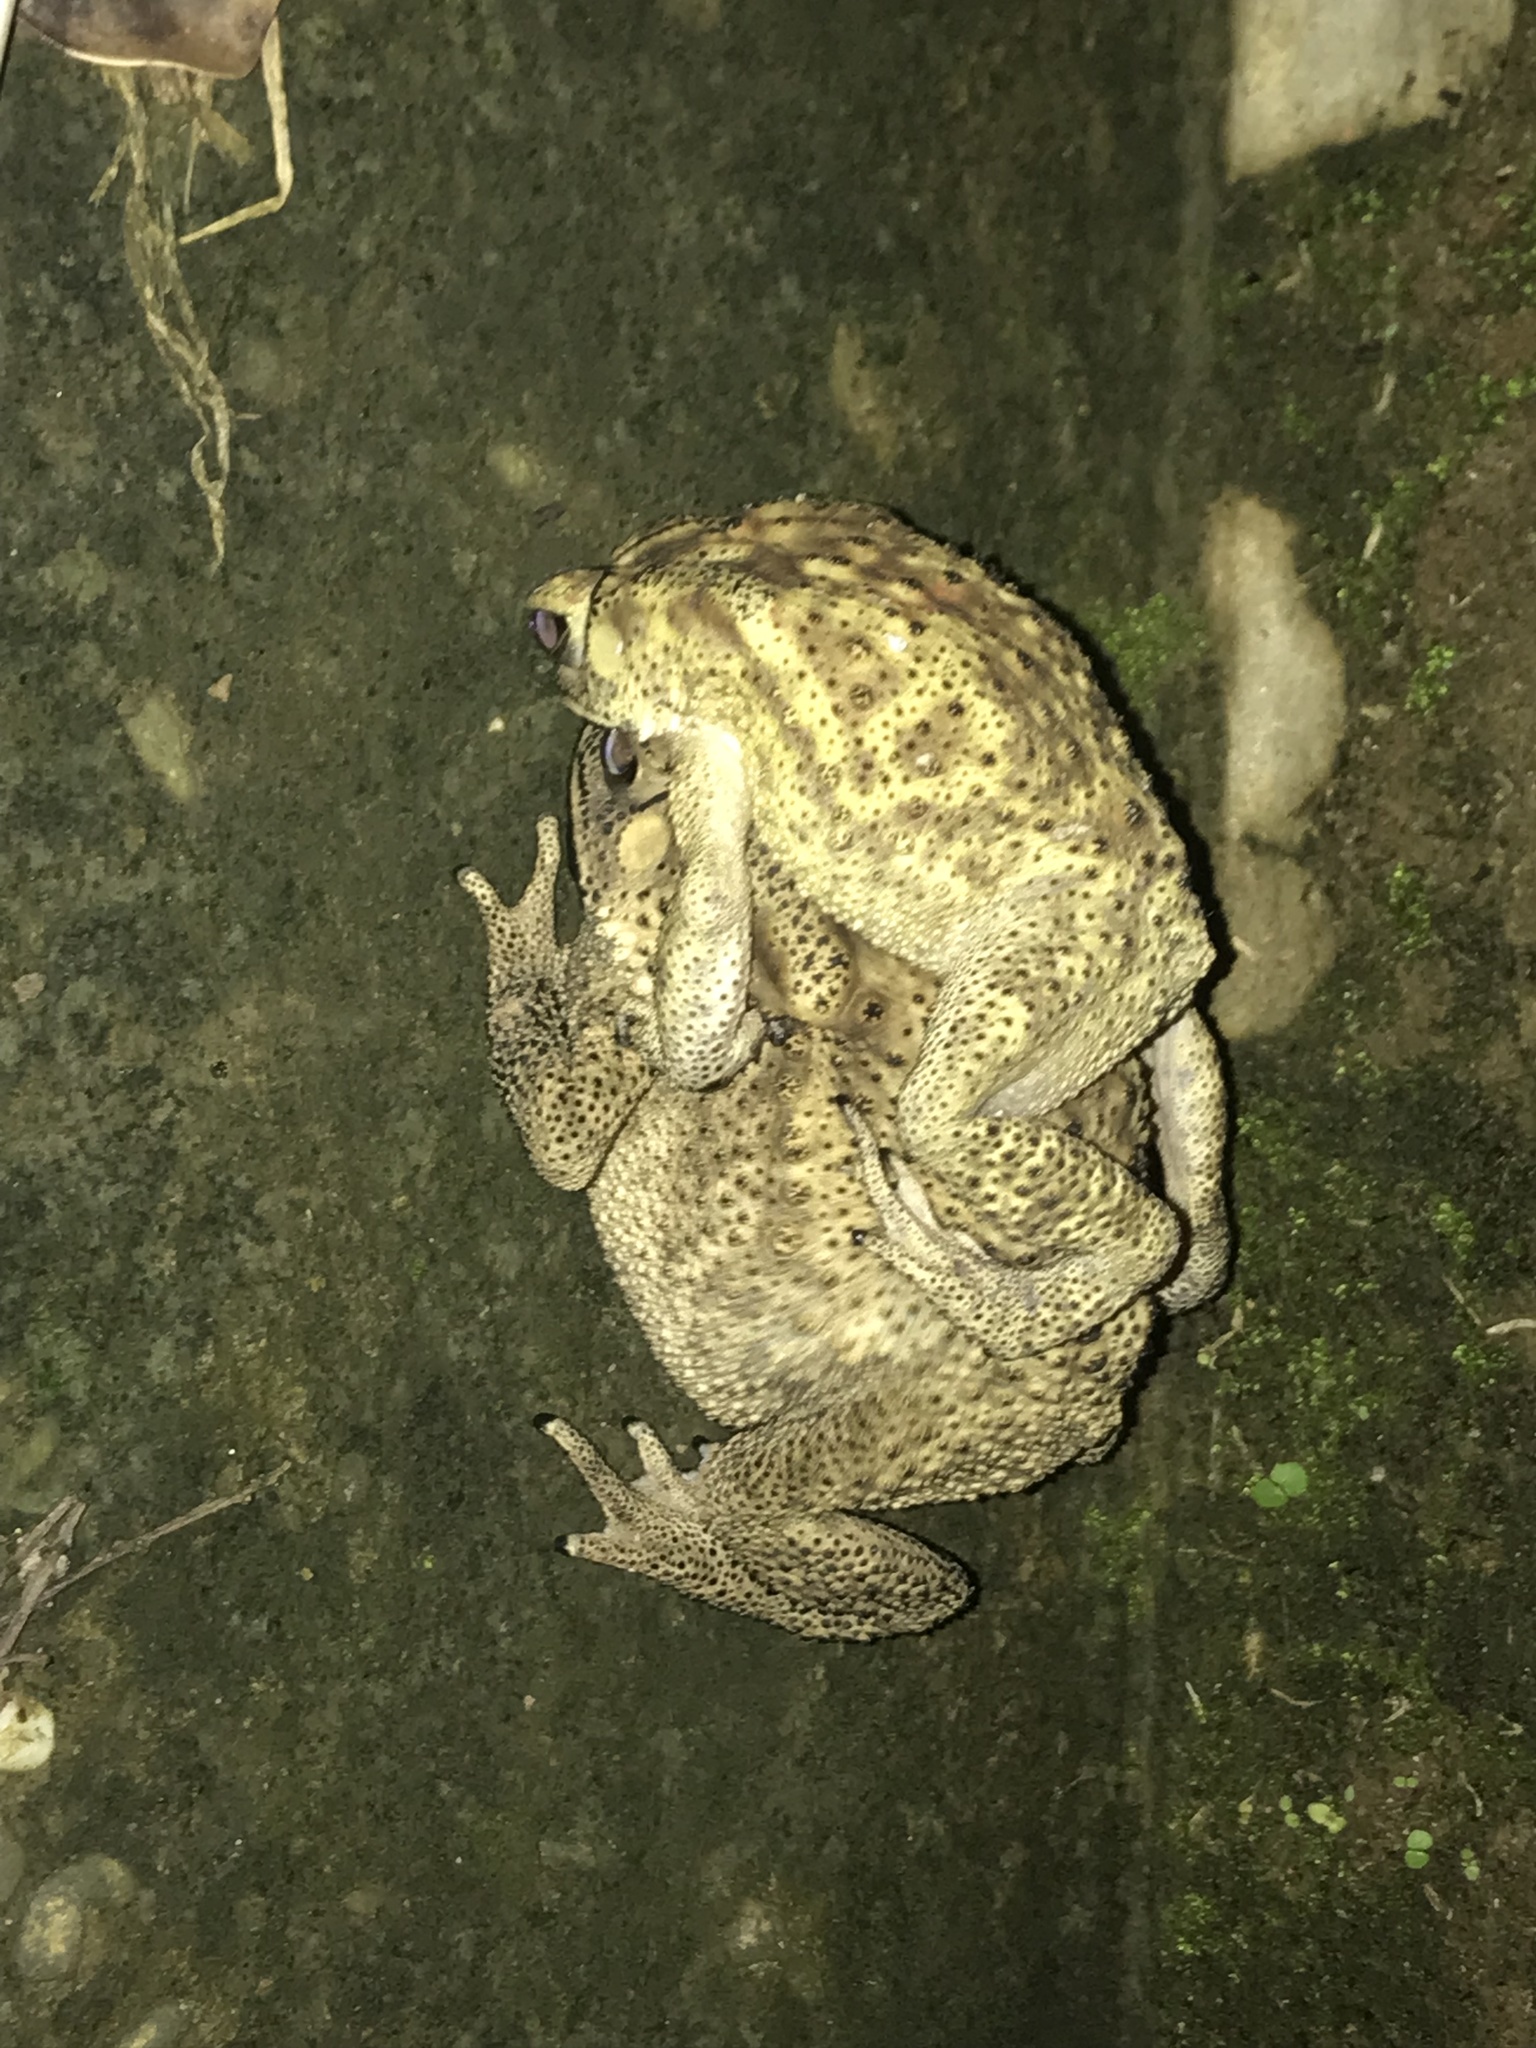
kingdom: Animalia
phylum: Chordata
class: Amphibia
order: Anura
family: Bufonidae
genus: Duttaphrynus
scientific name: Duttaphrynus melanostictus
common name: Common sunda toad
